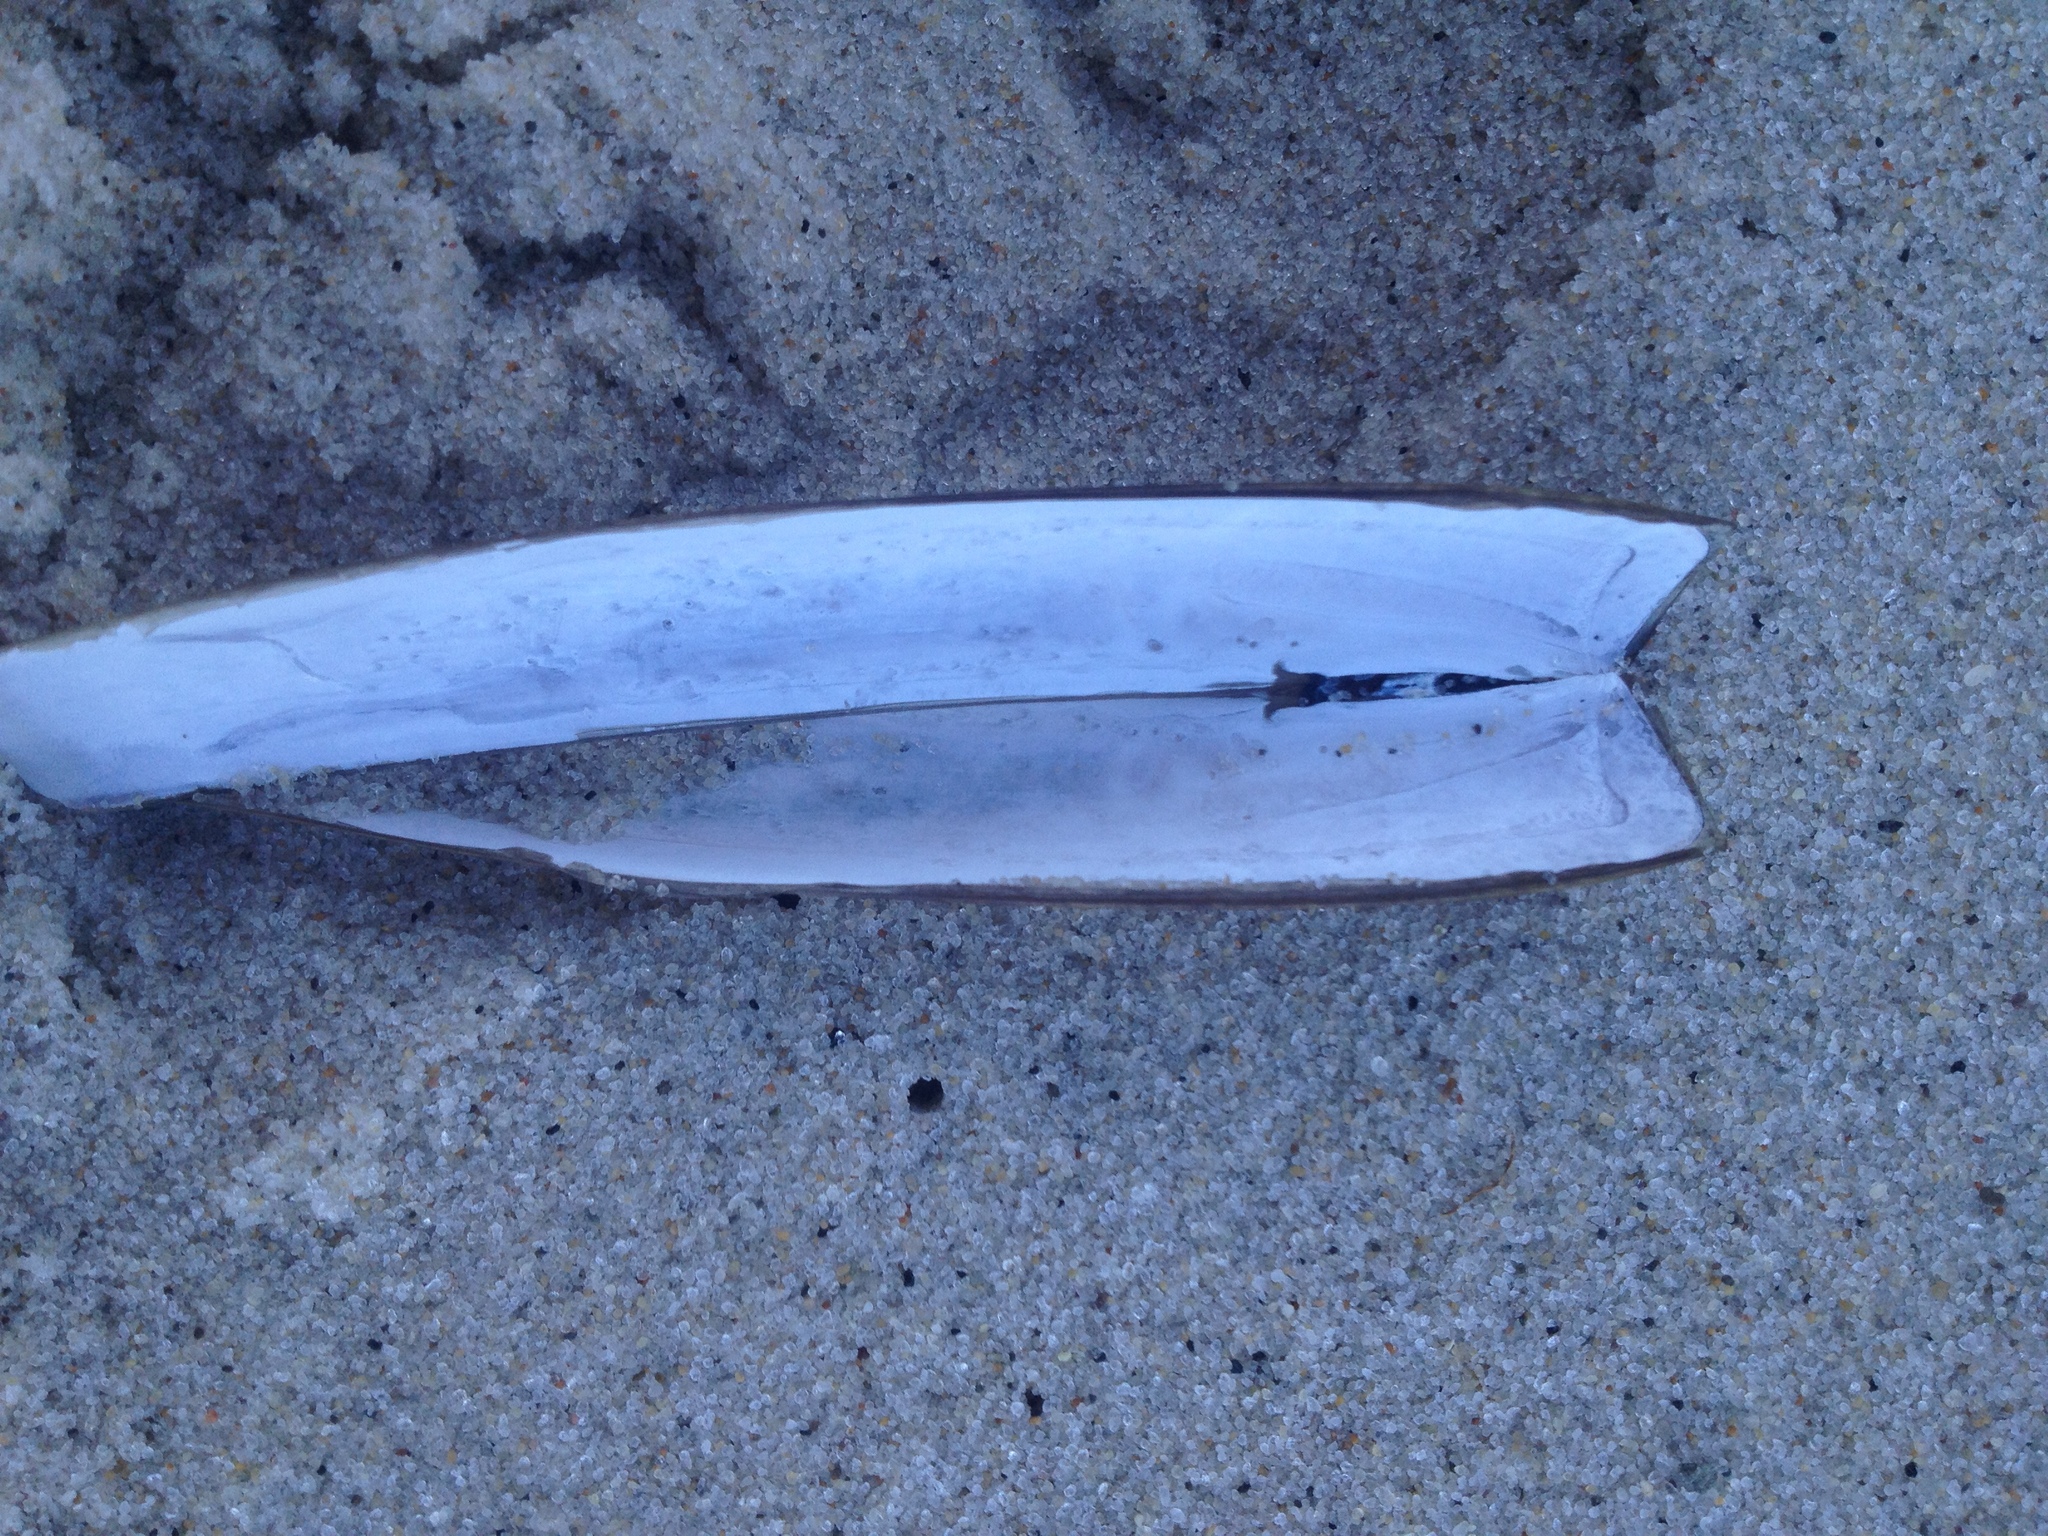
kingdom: Animalia
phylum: Mollusca
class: Bivalvia
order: Adapedonta
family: Pharidae
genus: Ensis
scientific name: Ensis leei
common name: American jack knife clam
